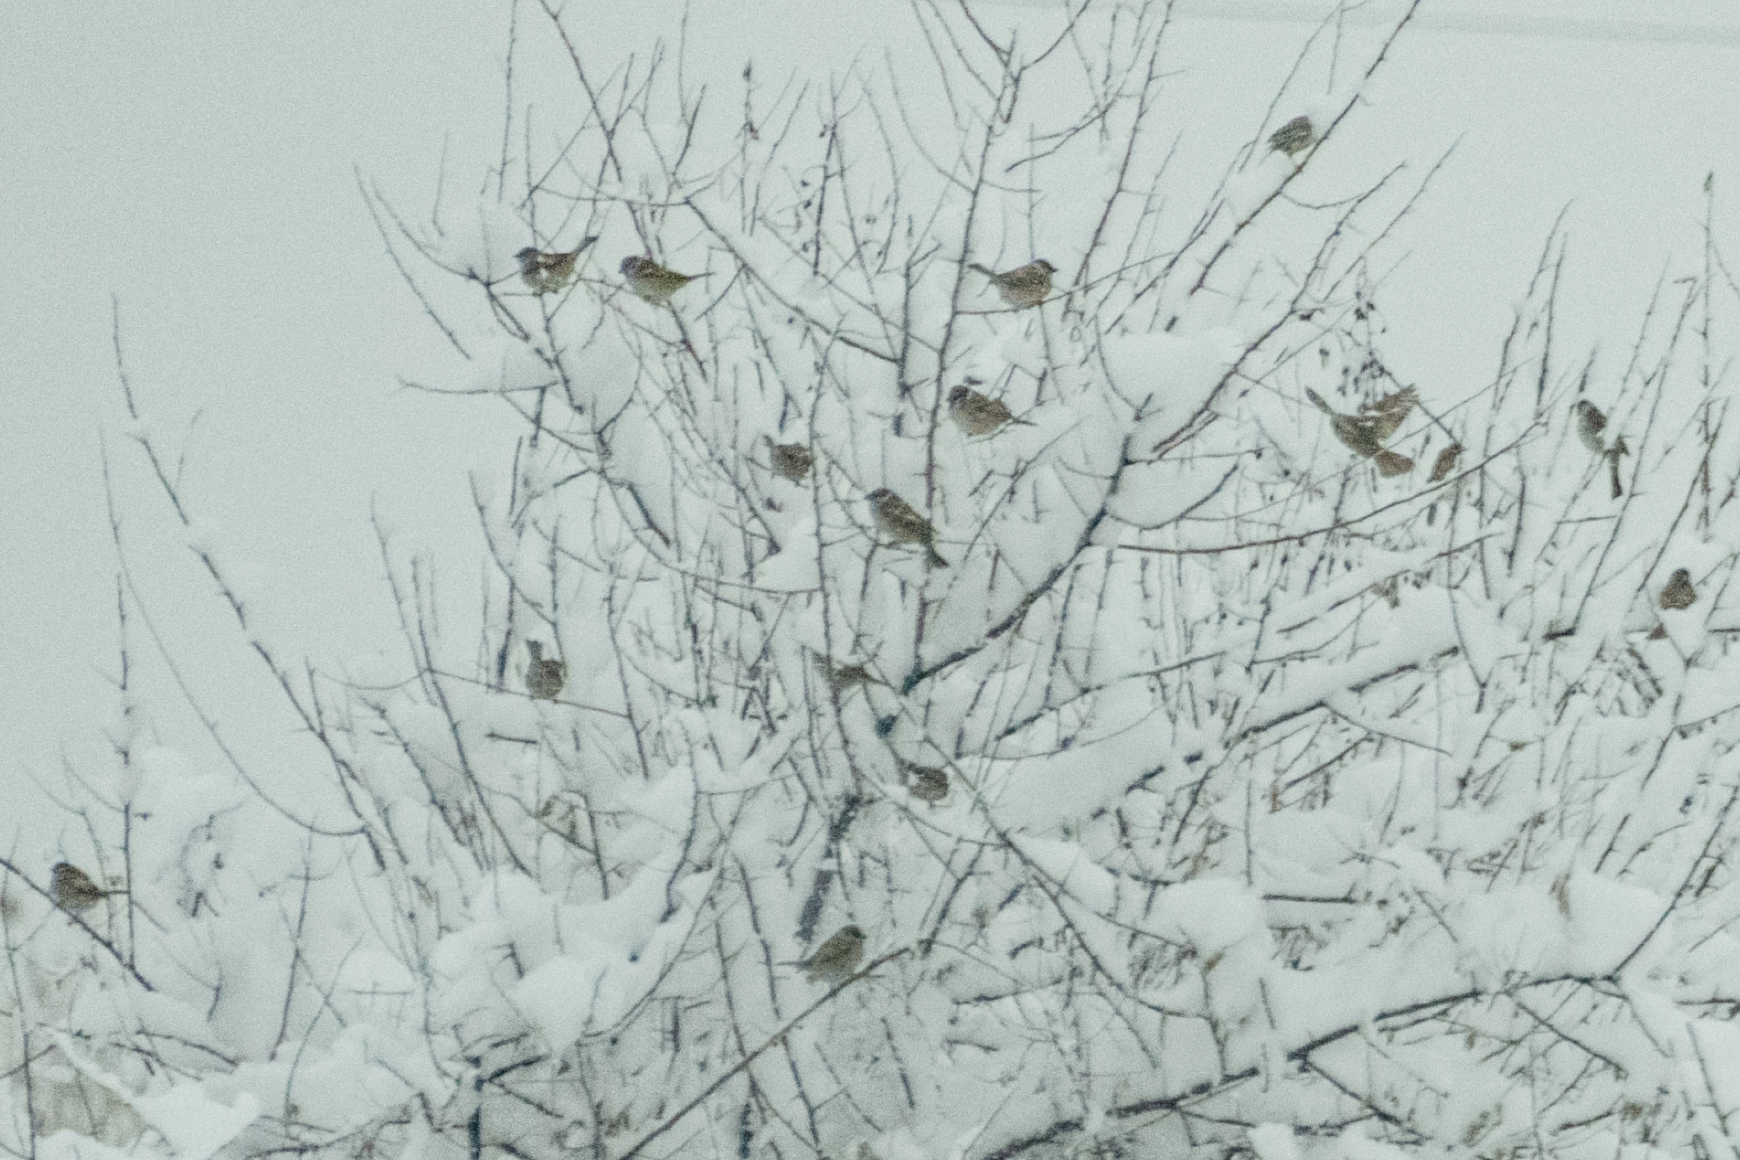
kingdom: Animalia
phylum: Chordata
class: Aves
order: Passeriformes
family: Passeridae
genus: Passer
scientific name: Passer montanus
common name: Eurasian tree sparrow
